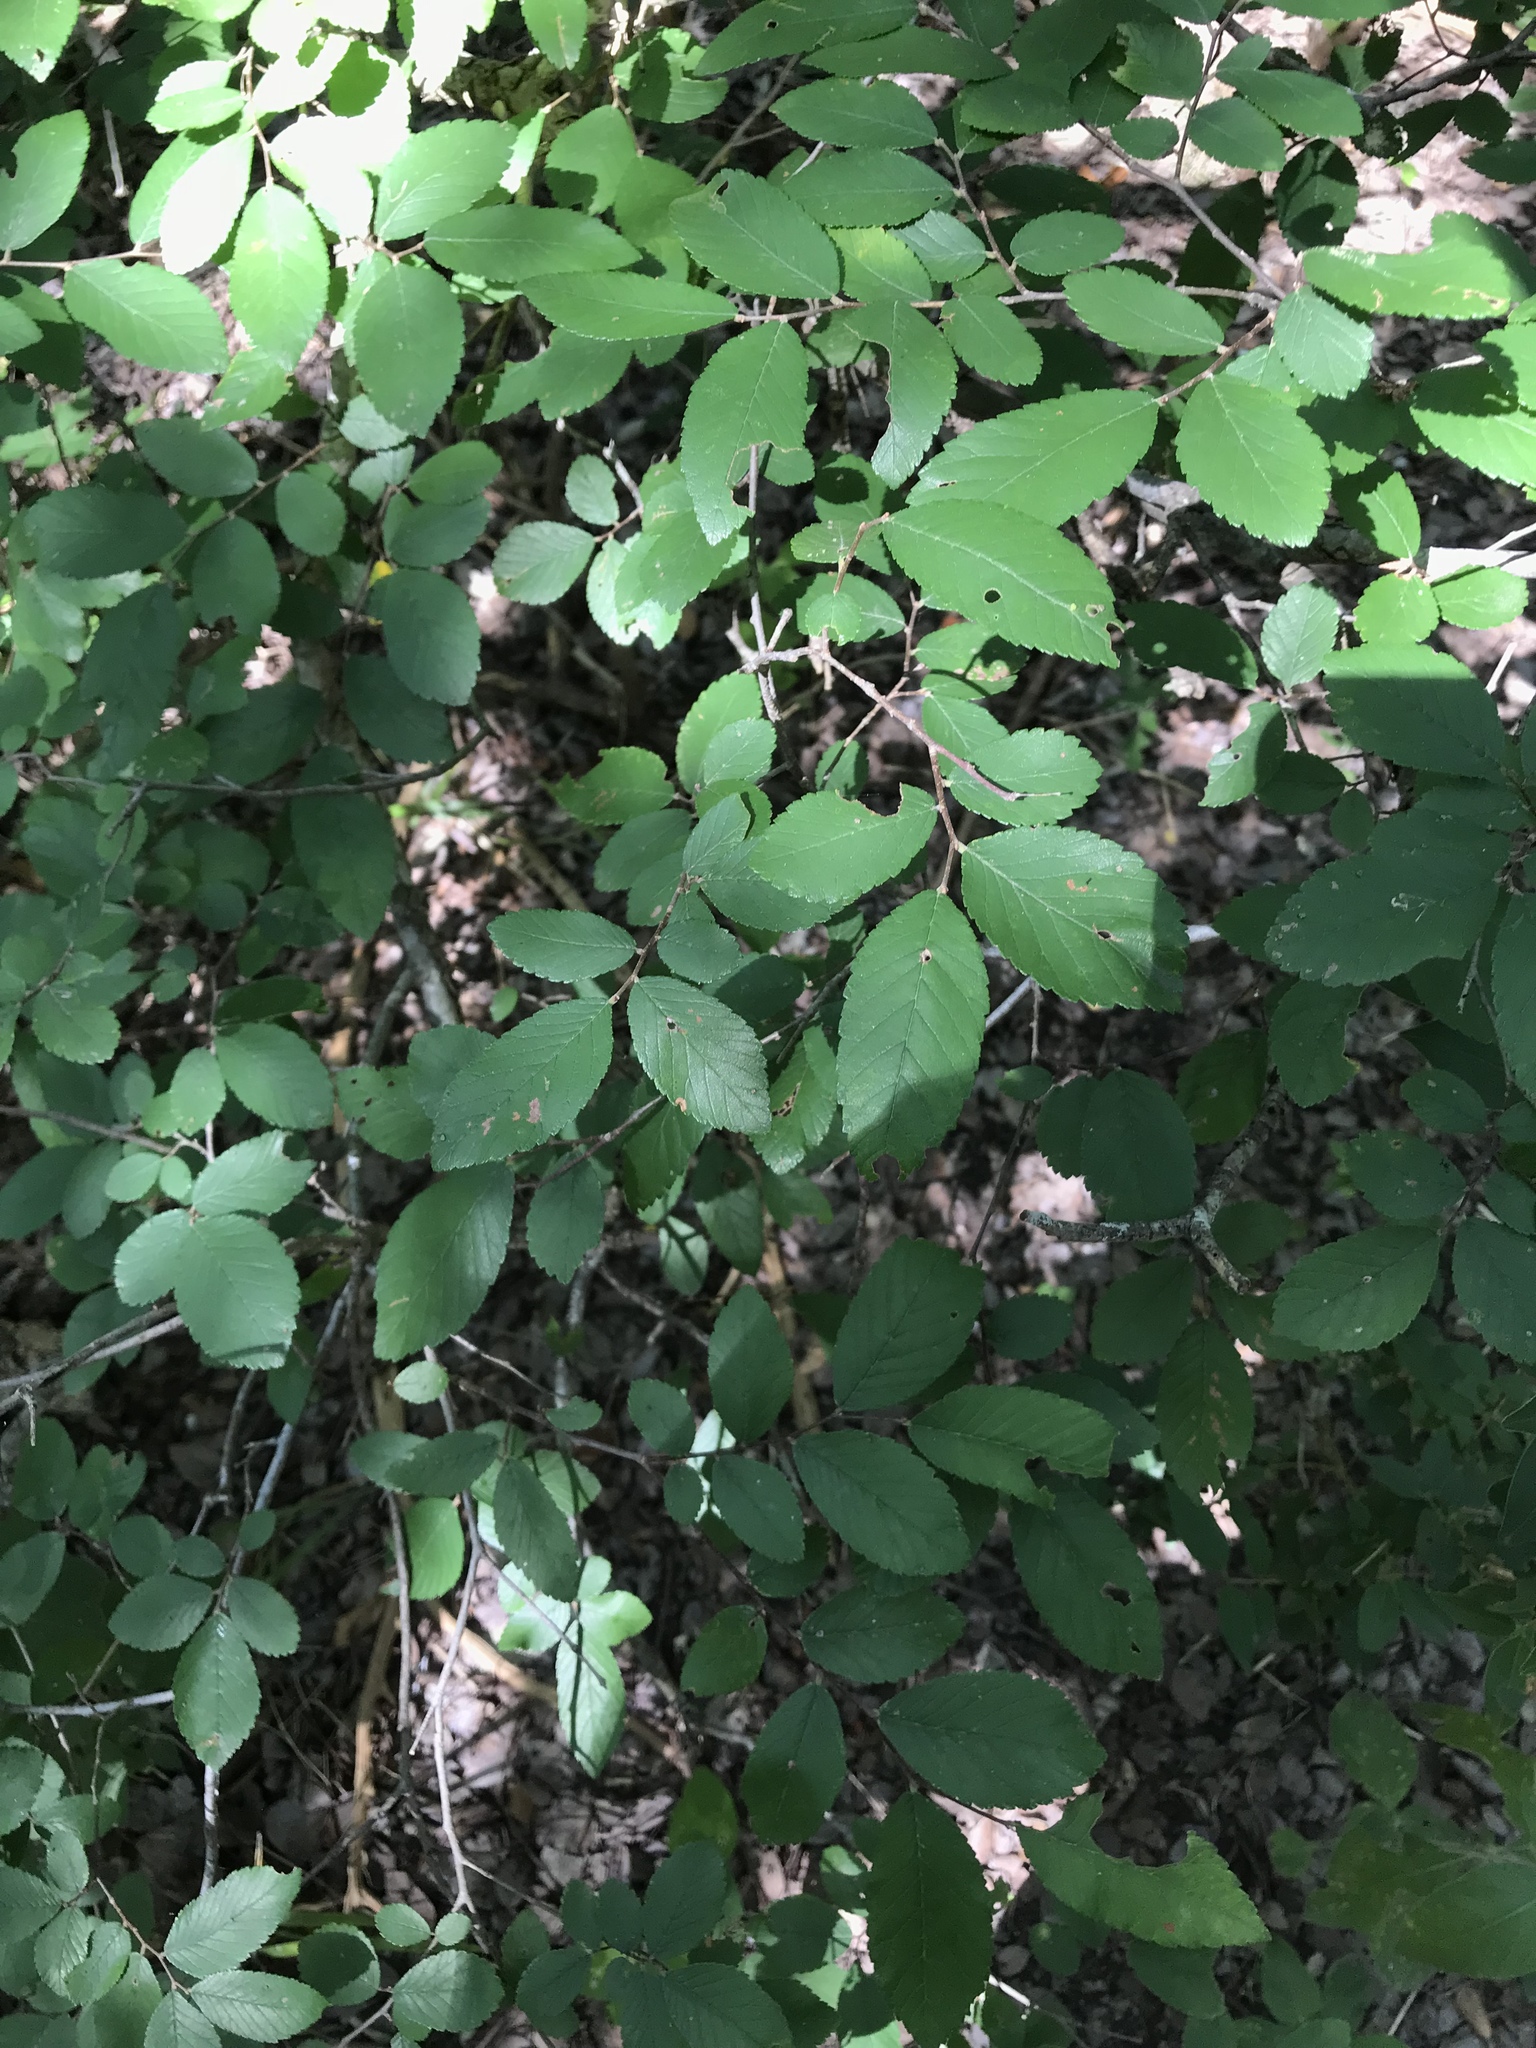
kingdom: Plantae
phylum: Tracheophyta
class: Magnoliopsida
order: Rosales
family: Ulmaceae
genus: Ulmus
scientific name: Ulmus crassifolia
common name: Basket elm
